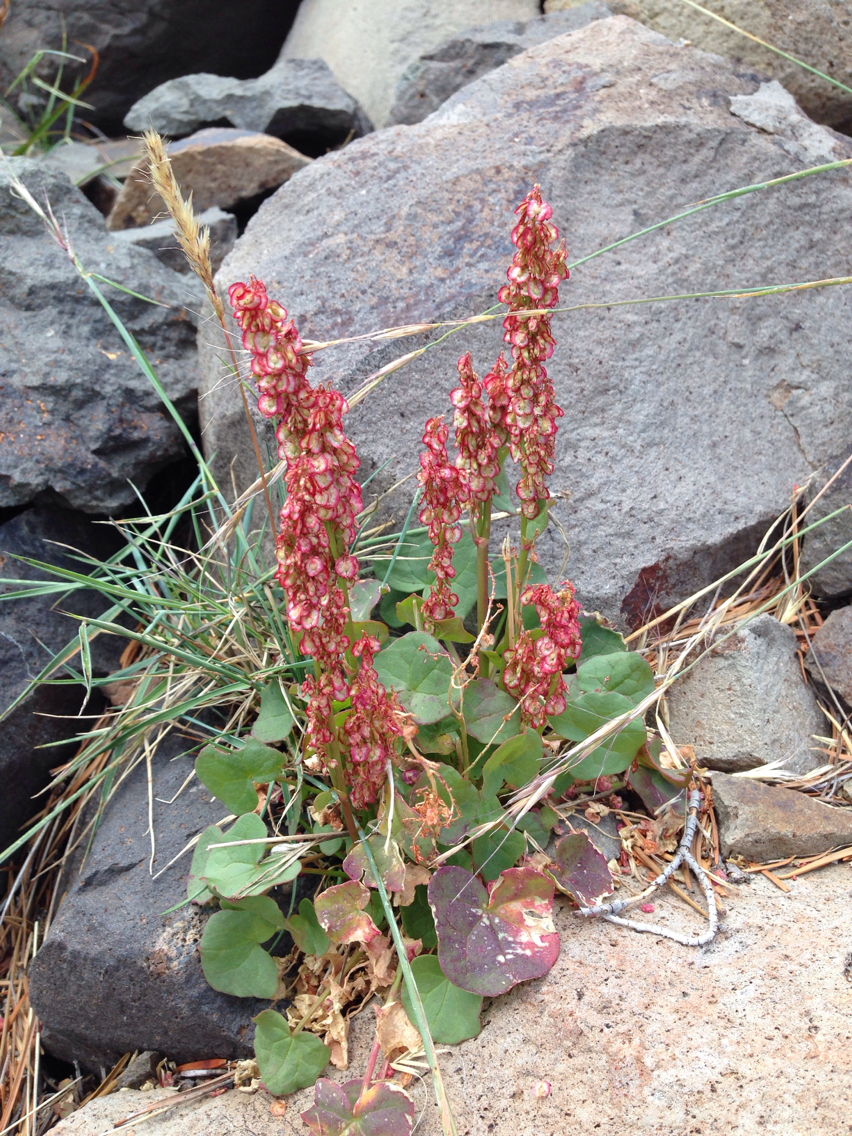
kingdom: Plantae
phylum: Tracheophyta
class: Magnoliopsida
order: Caryophyllales
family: Polygonaceae
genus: Oxyria
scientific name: Oxyria digyna
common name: Alpine mountain-sorrel
